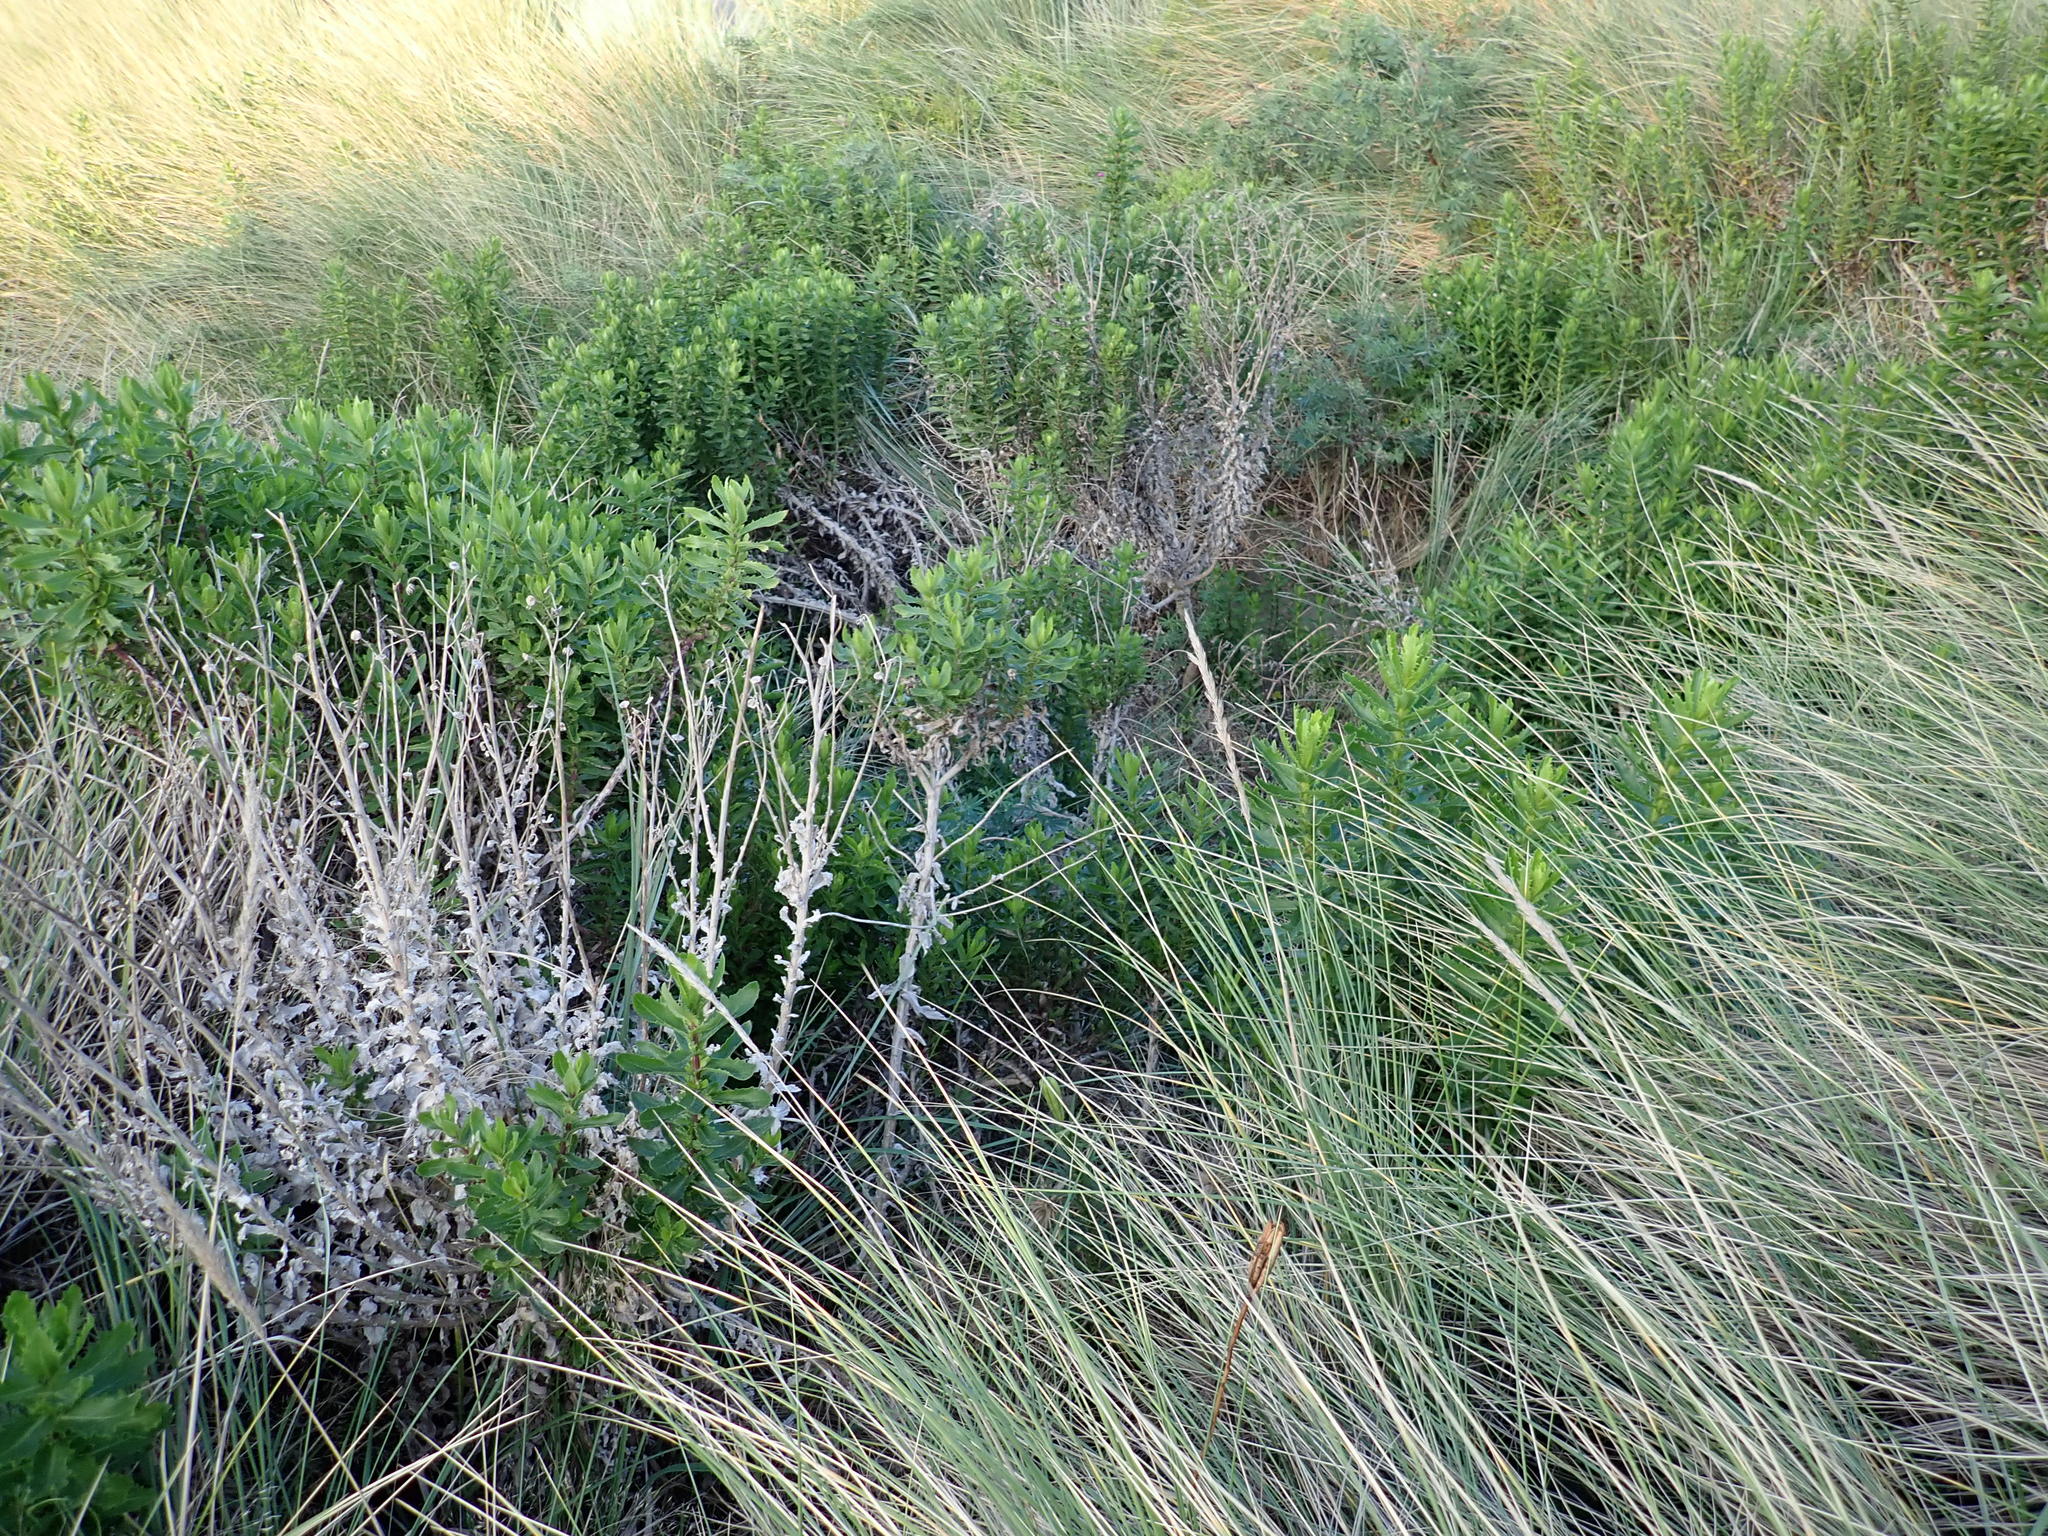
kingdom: Plantae
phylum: Tracheophyta
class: Magnoliopsida
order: Asterales
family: Asteraceae
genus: Senecio
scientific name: Senecio glastifolius
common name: Woad-leaved ragwort
